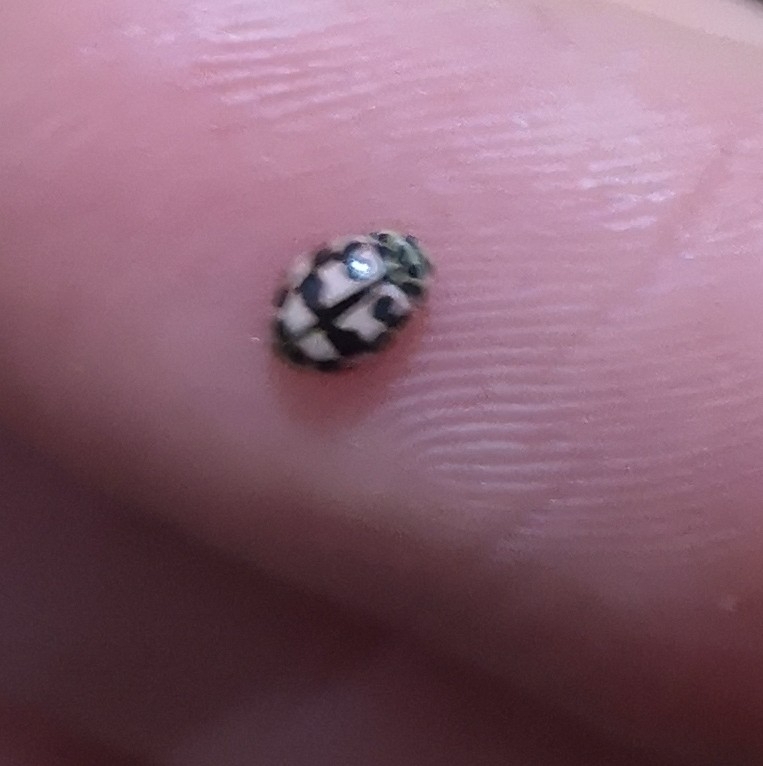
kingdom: Animalia
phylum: Arthropoda
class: Insecta
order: Coleoptera
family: Coccinellidae
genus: Oenopia
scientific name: Oenopia conglobata
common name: Ladybird beetle
